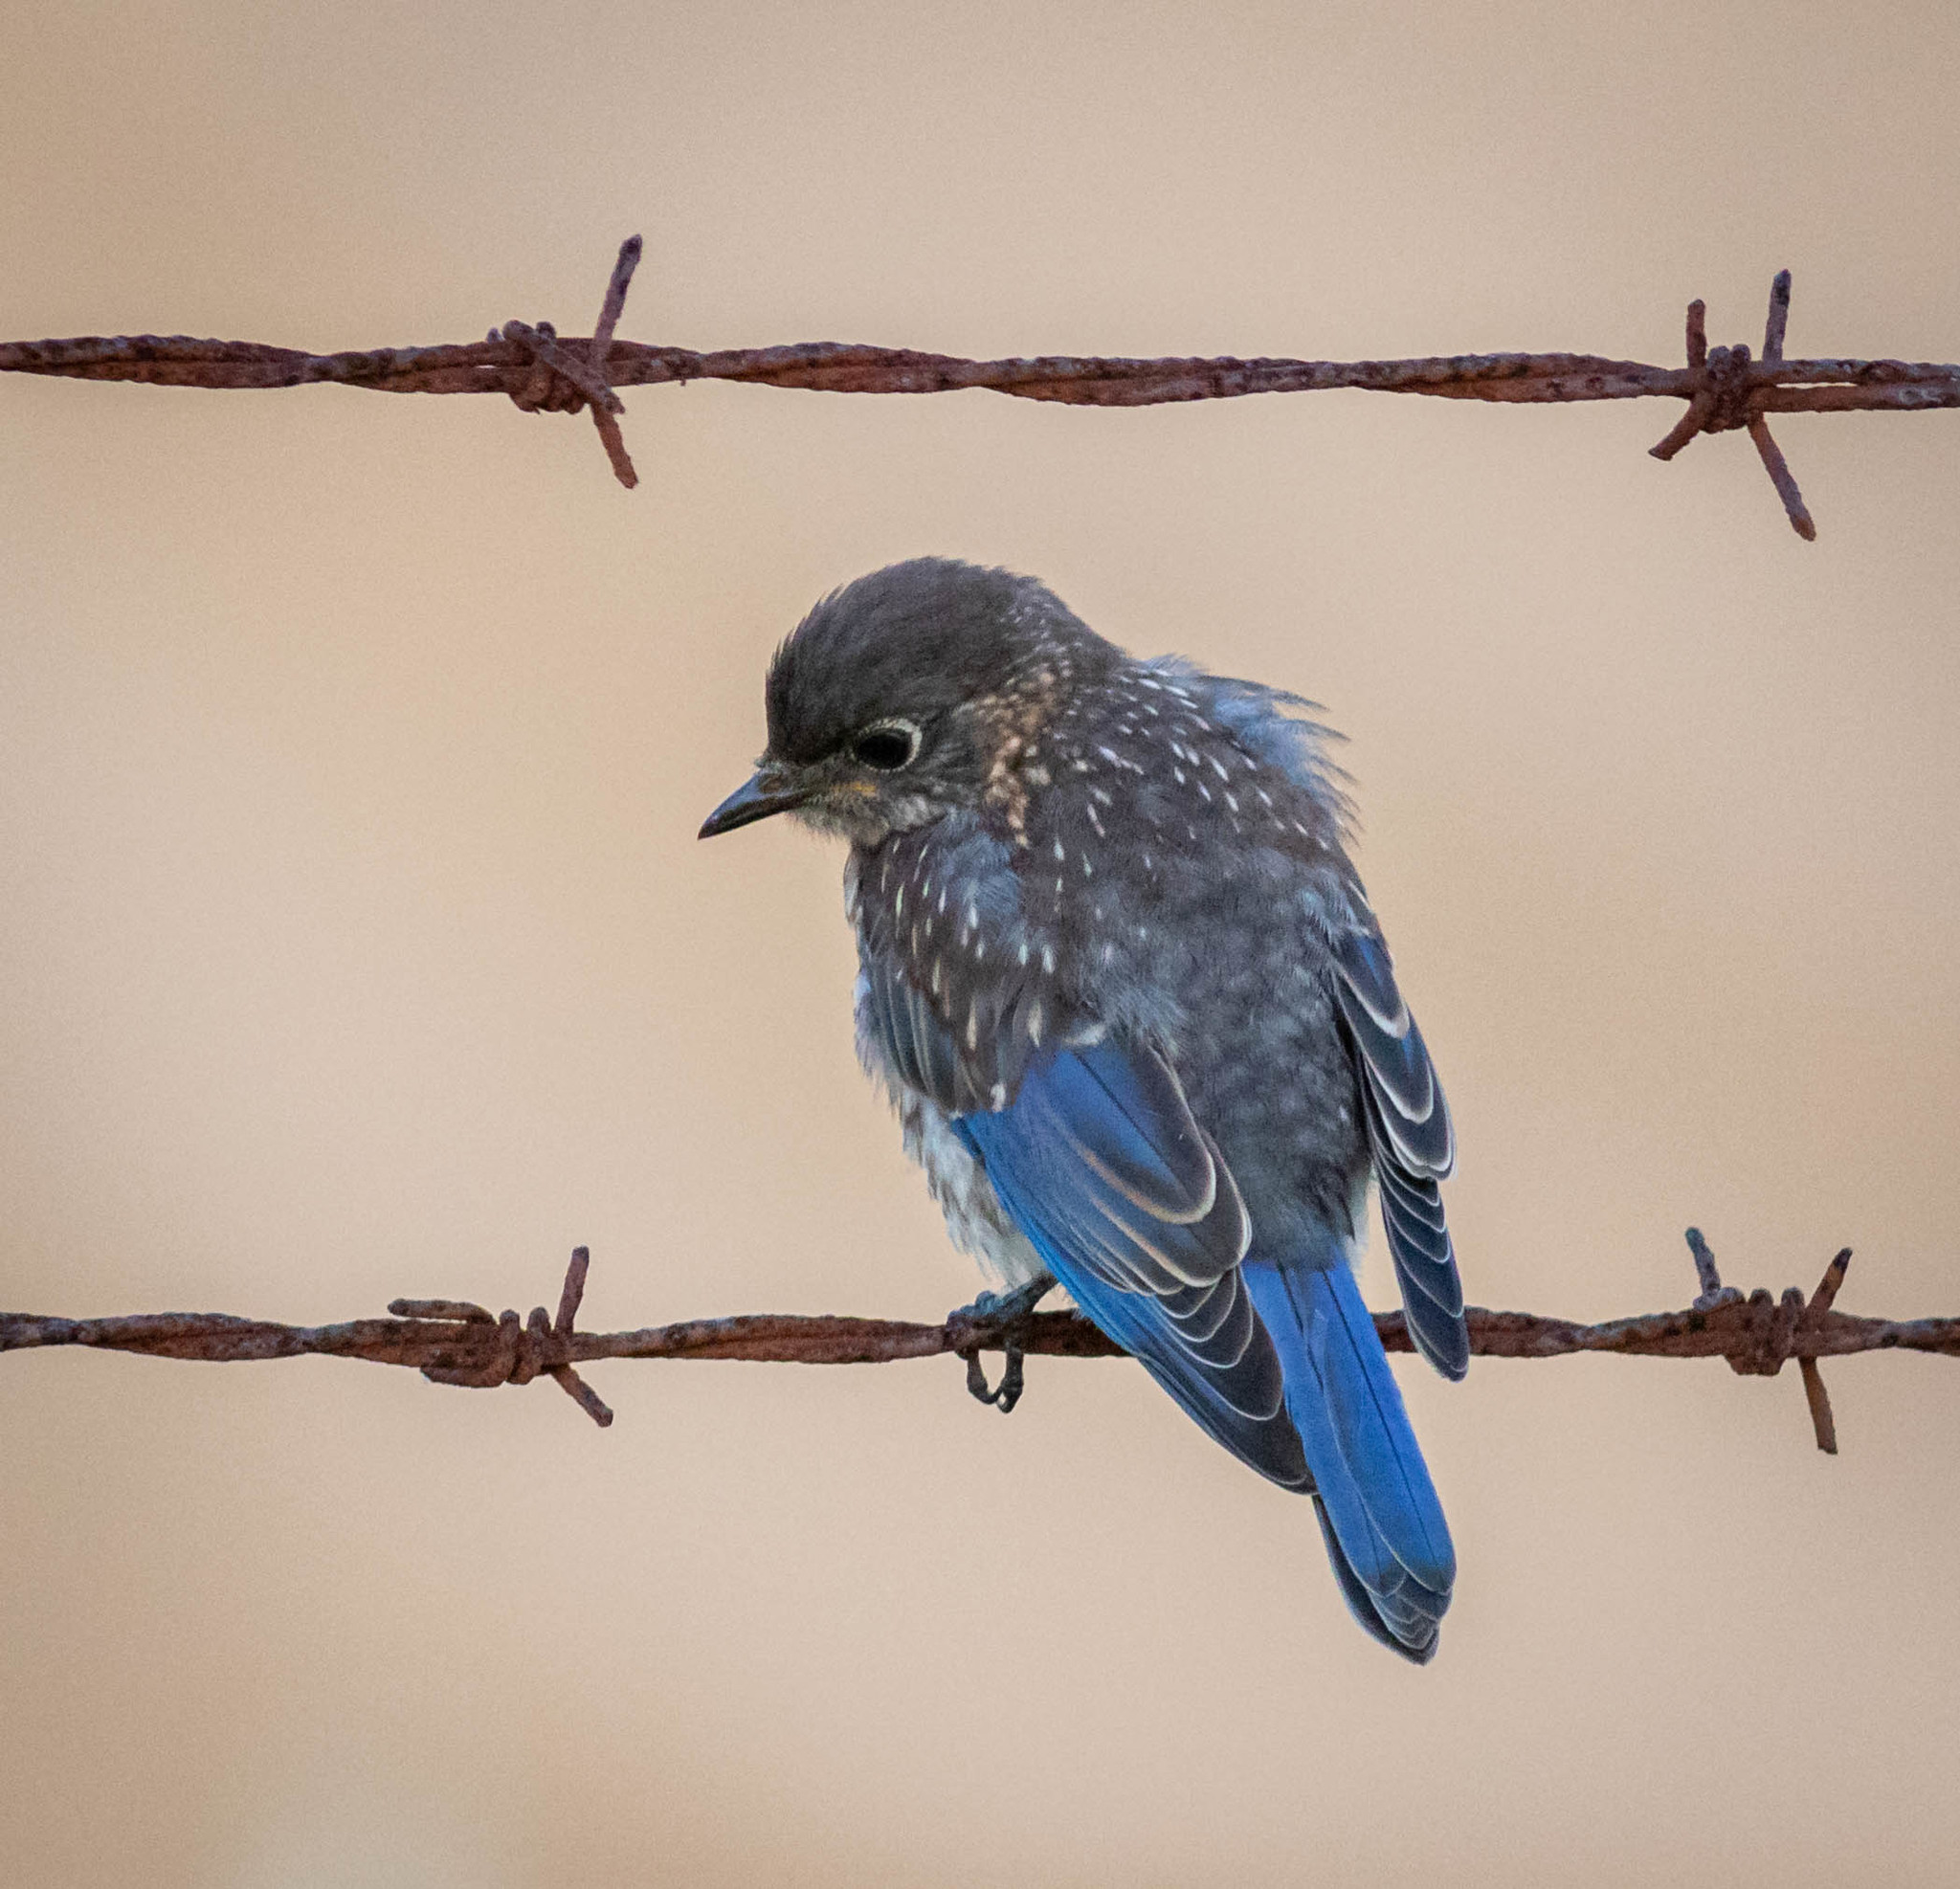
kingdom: Animalia
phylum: Chordata
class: Aves
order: Passeriformes
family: Turdidae
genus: Sialia
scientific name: Sialia sialis
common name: Eastern bluebird
